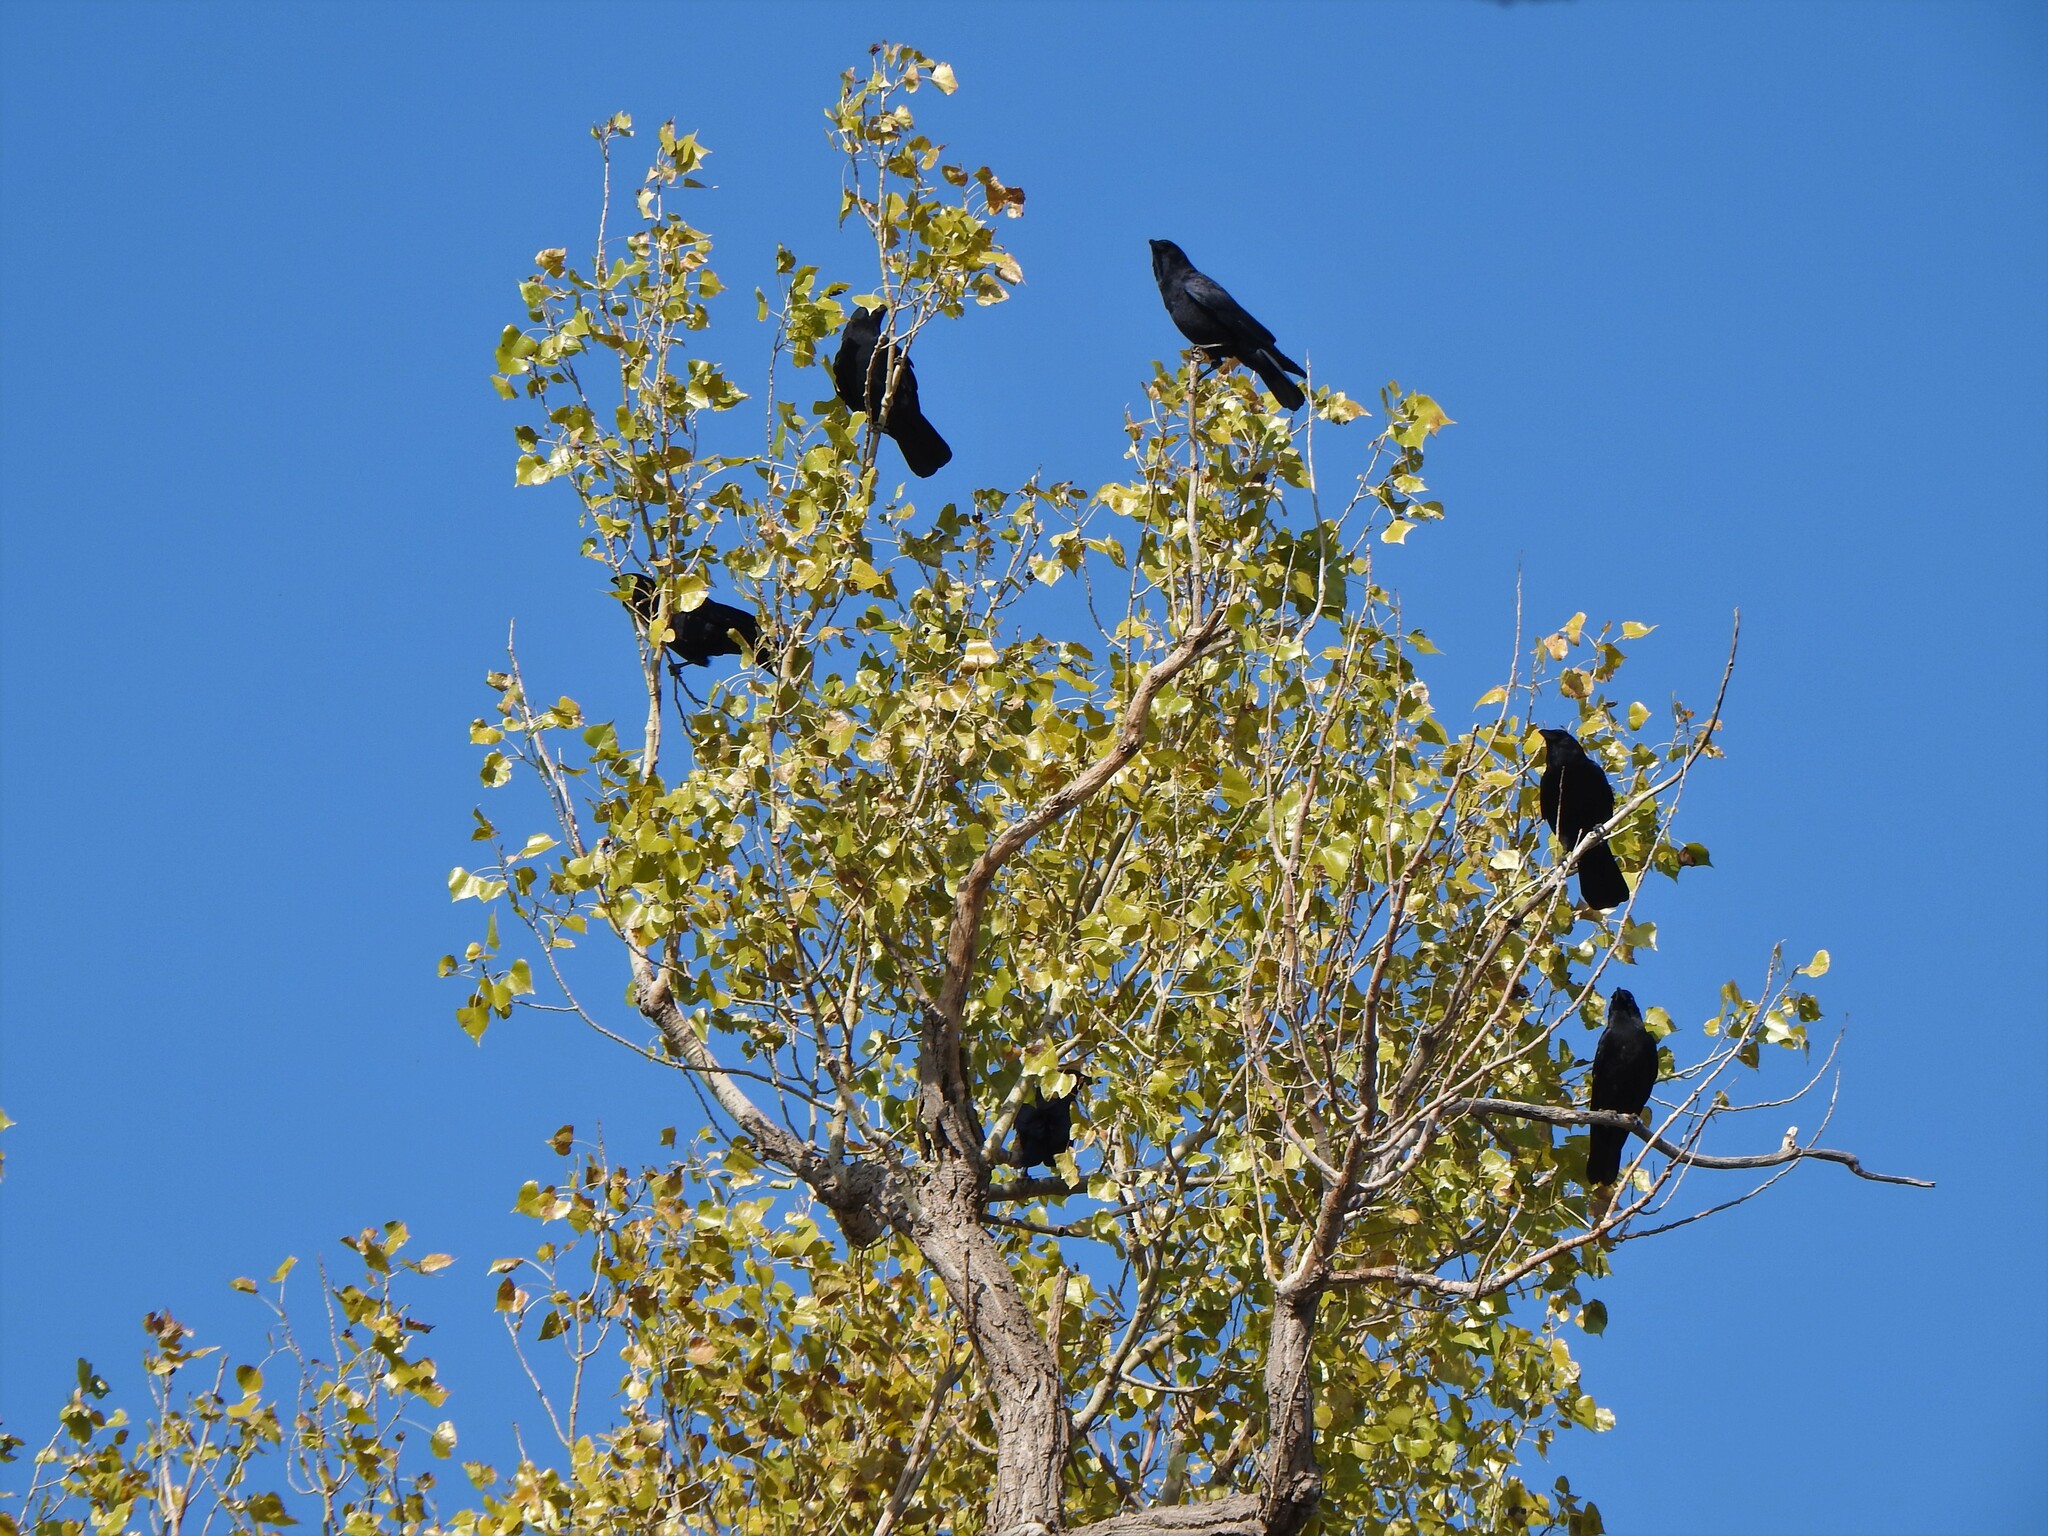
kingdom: Animalia
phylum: Chordata
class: Aves
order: Passeriformes
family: Corvidae
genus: Corvus
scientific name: Corvus brachyrhynchos
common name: American crow
